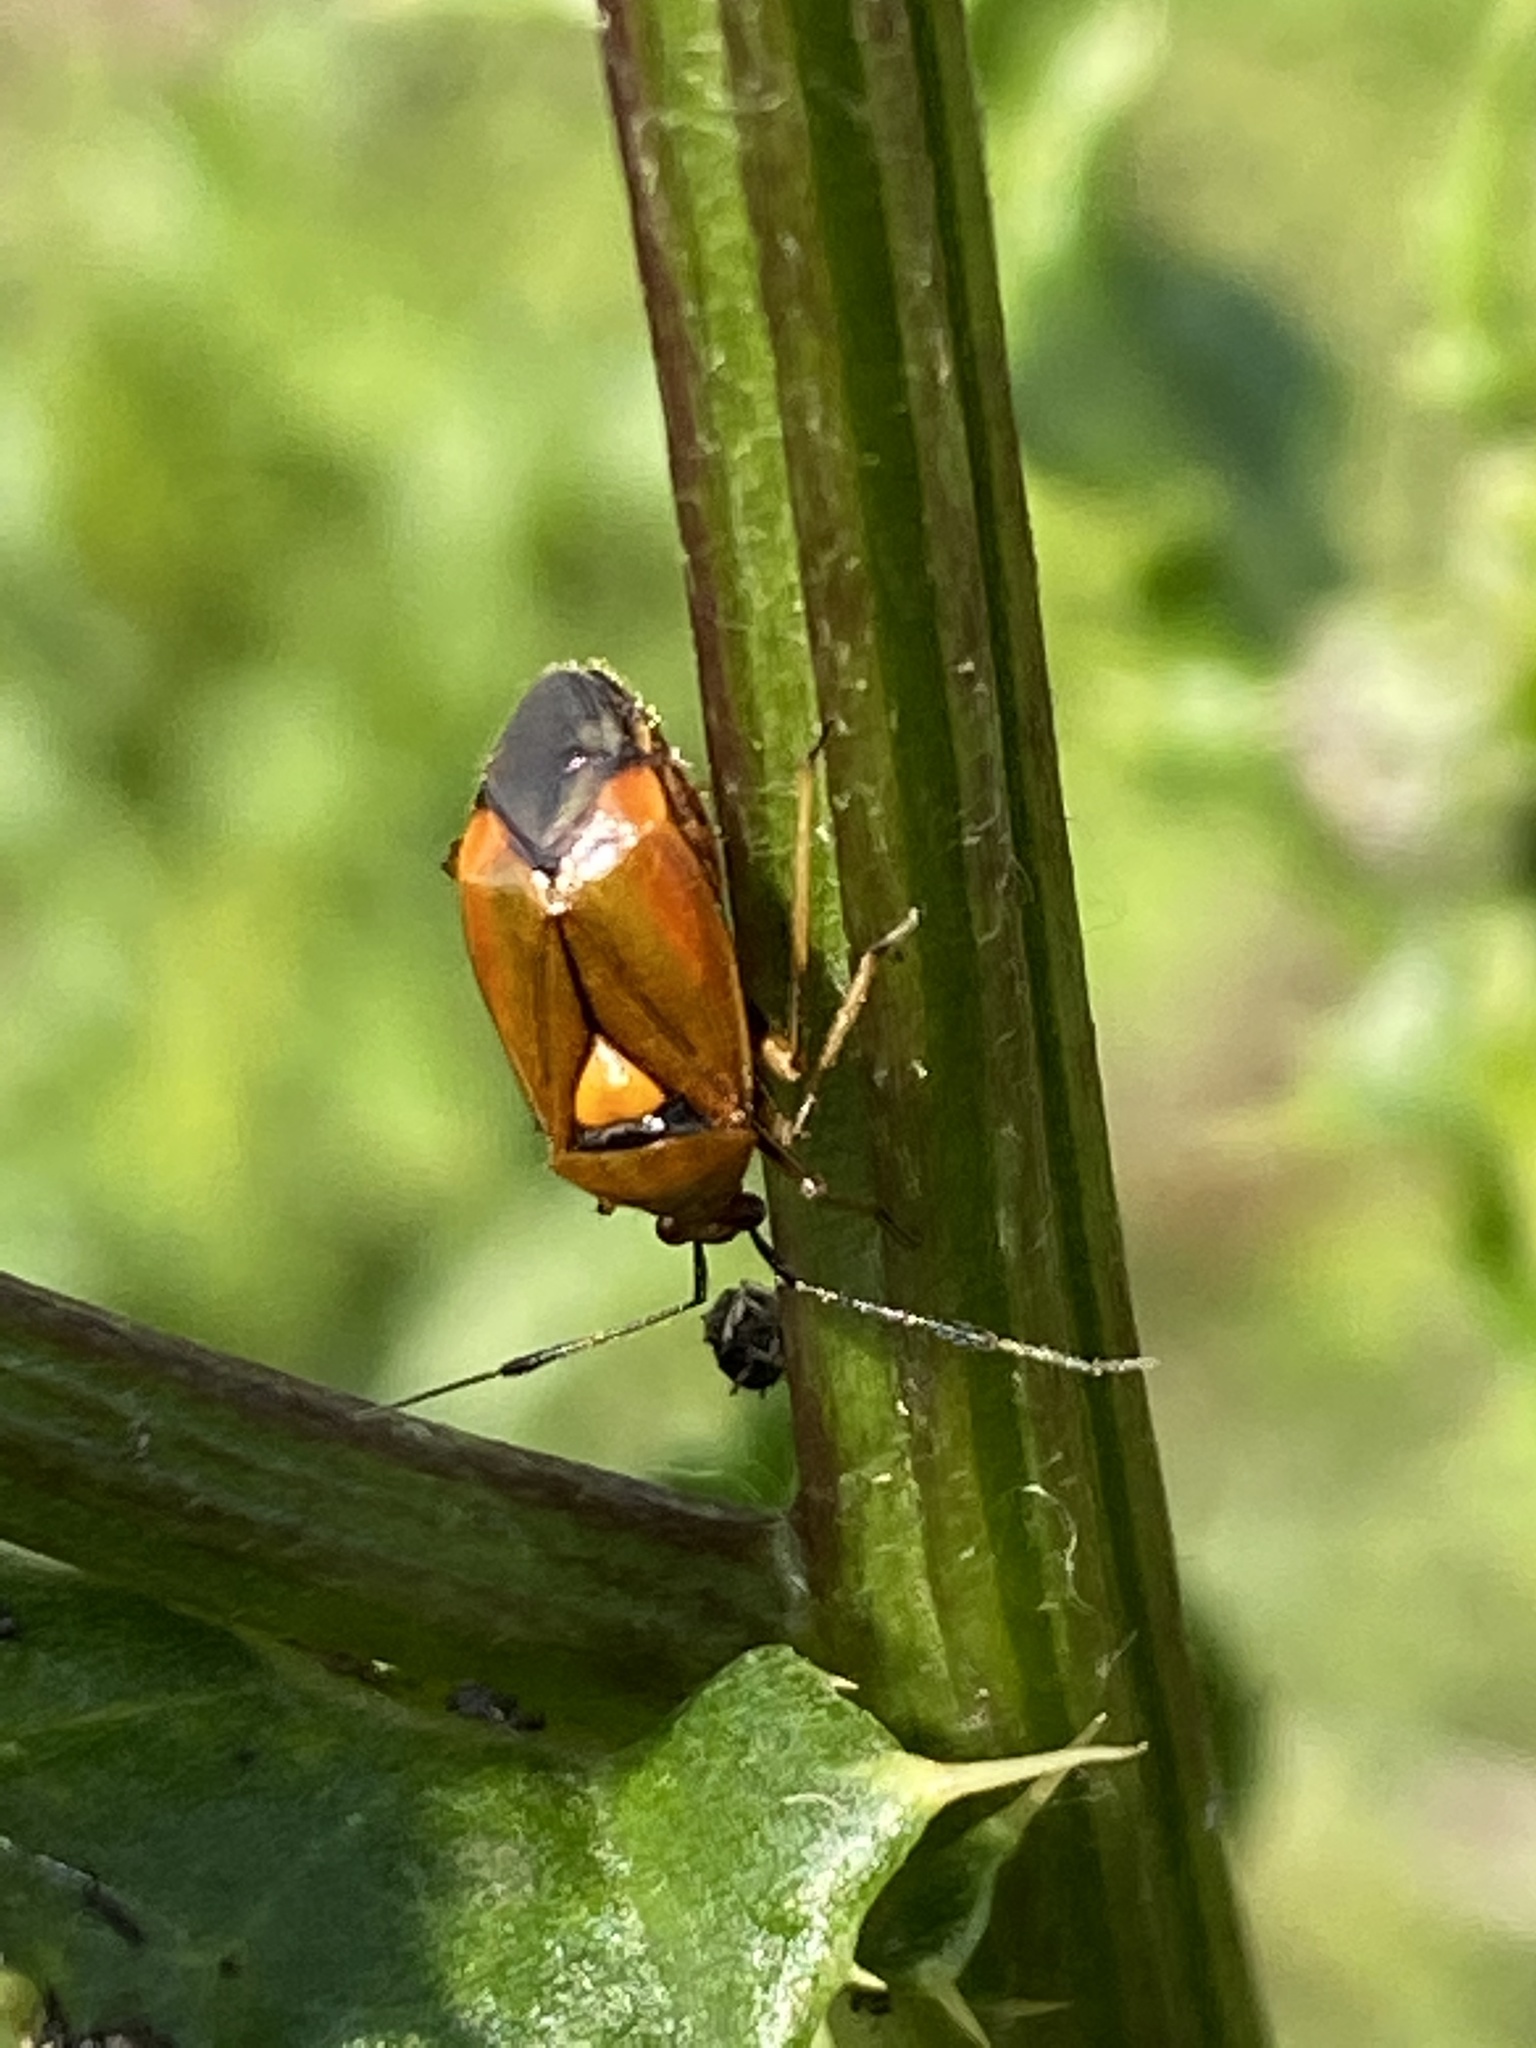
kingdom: Animalia
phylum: Arthropoda
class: Insecta
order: Hemiptera
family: Miridae
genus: Deraeocoris
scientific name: Deraeocoris ruber
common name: Plant bug
